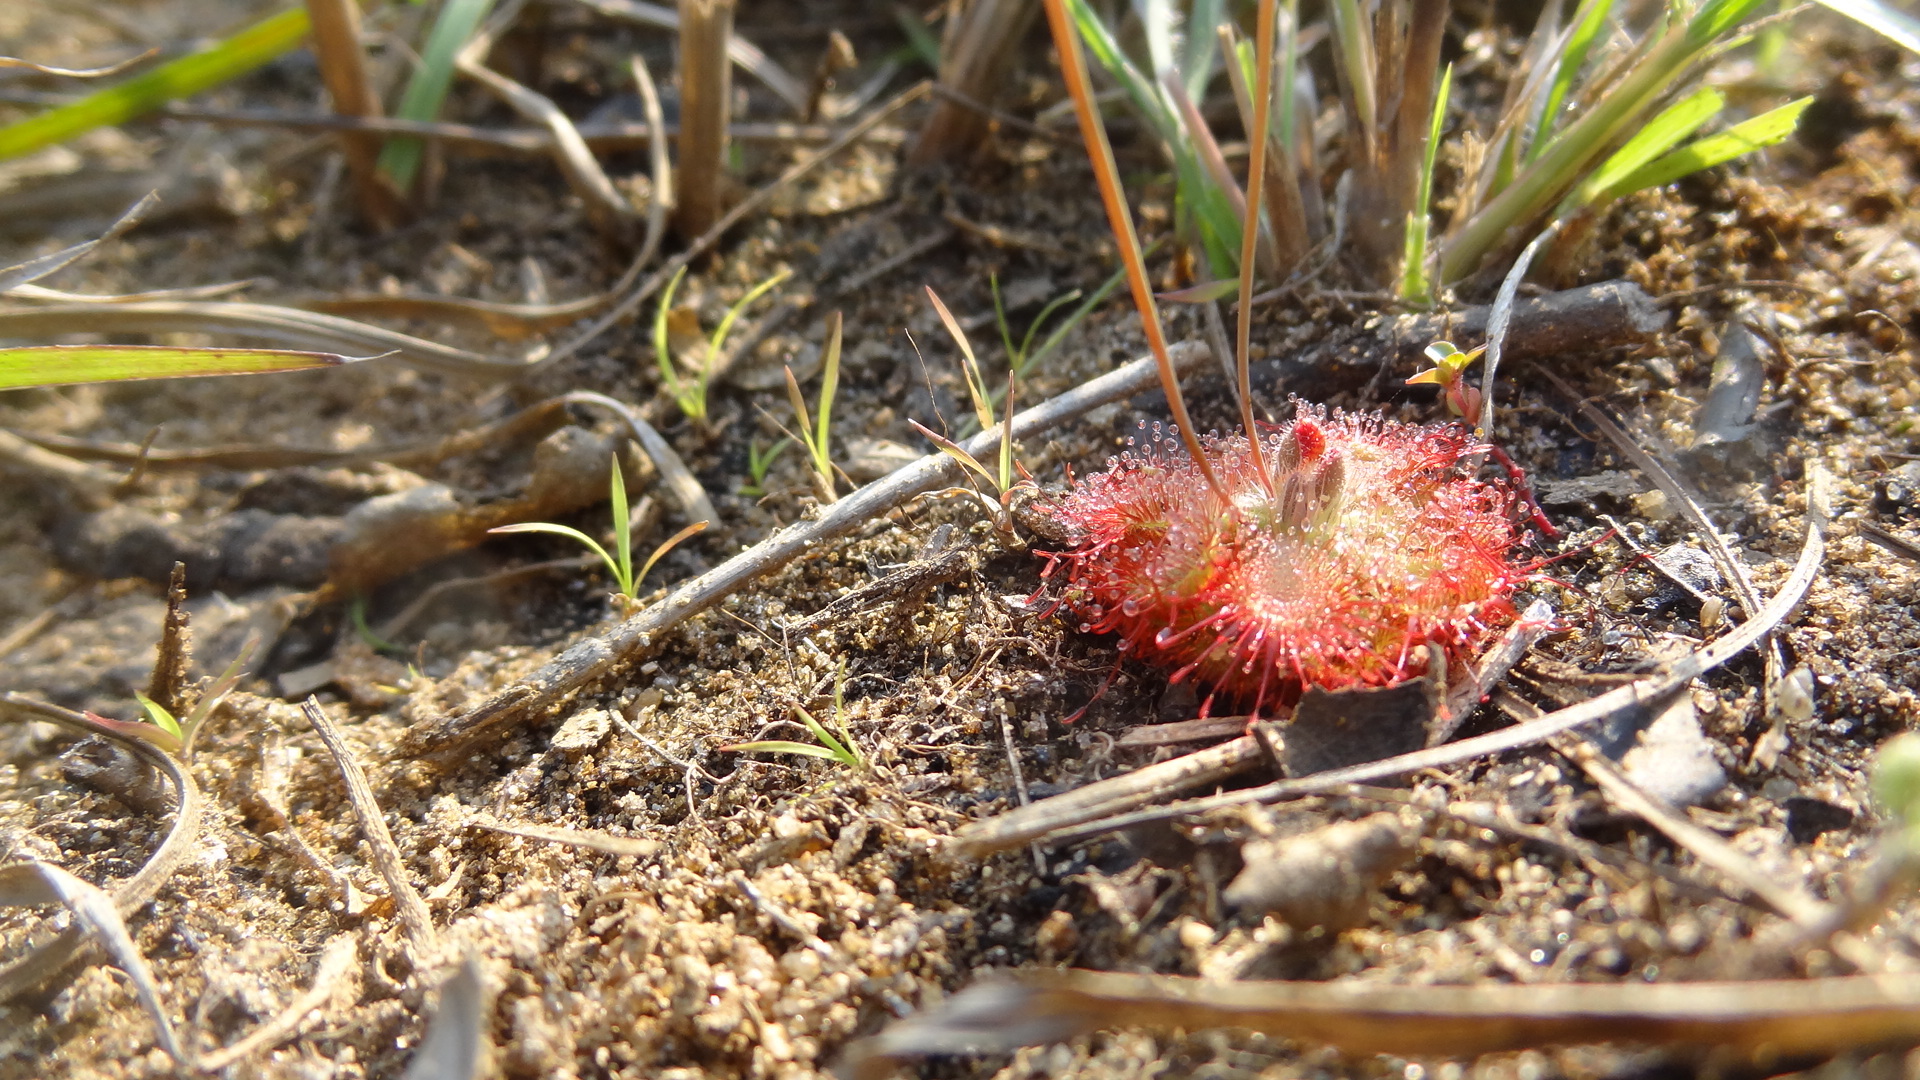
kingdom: Plantae
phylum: Tracheophyta
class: Magnoliopsida
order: Caryophyllales
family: Droseraceae
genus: Drosera
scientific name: Drosera spatulata
